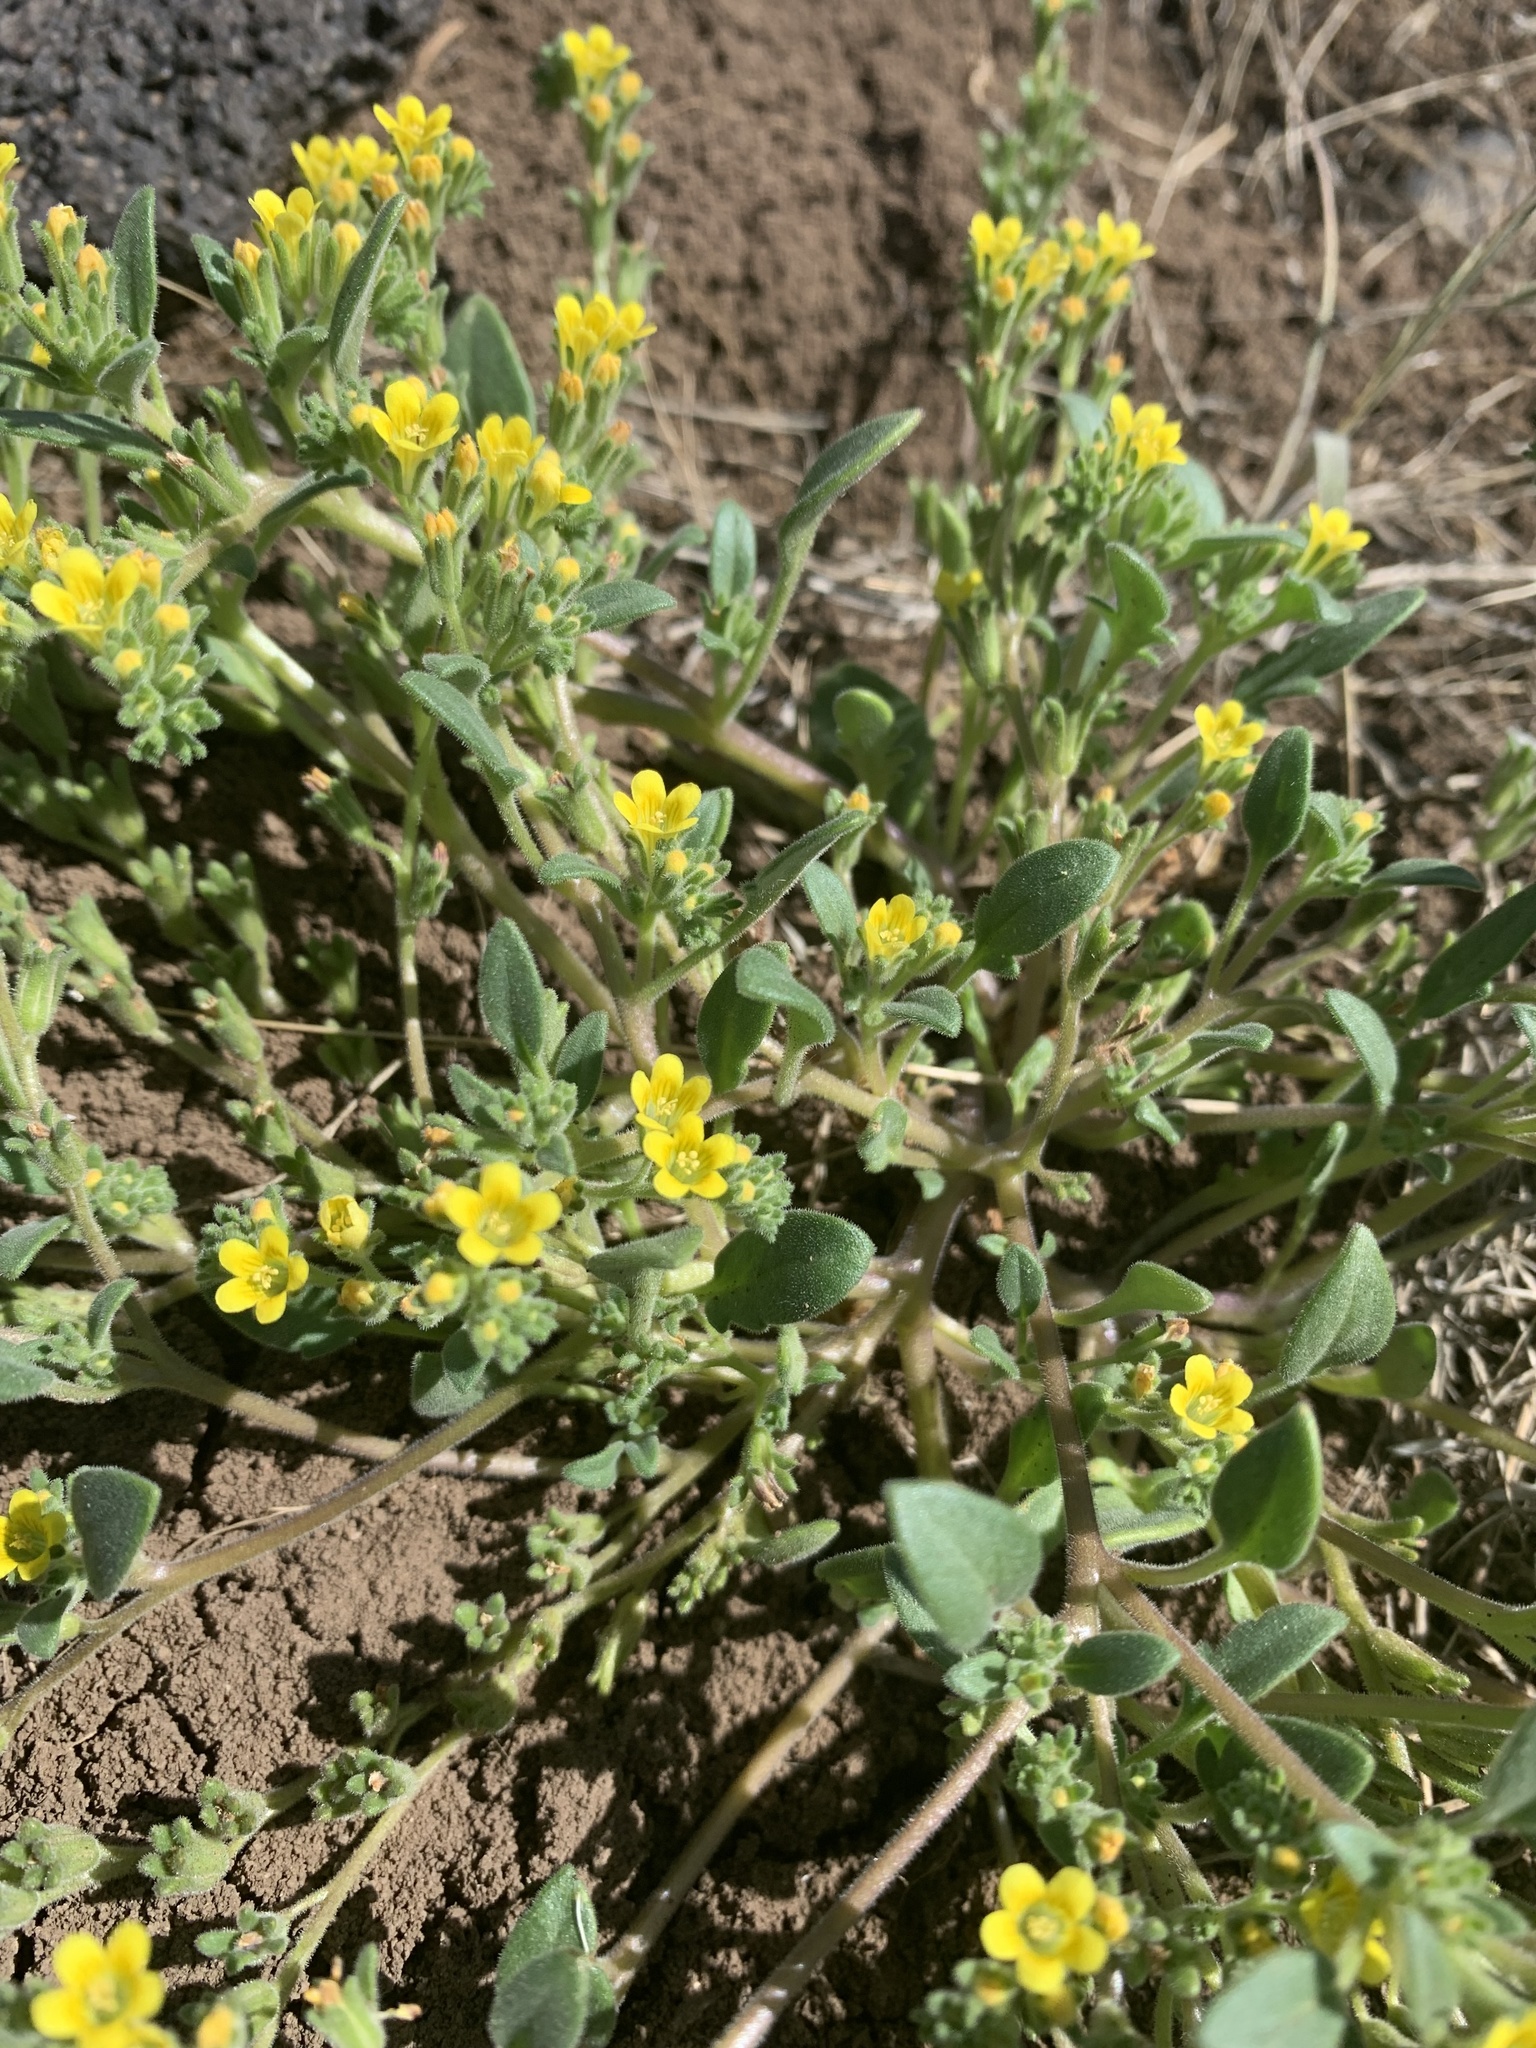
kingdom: Plantae
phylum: Tracheophyta
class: Magnoliopsida
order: Boraginales
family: Hydrophyllaceae
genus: Phacelia
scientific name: Phacelia adenophora
